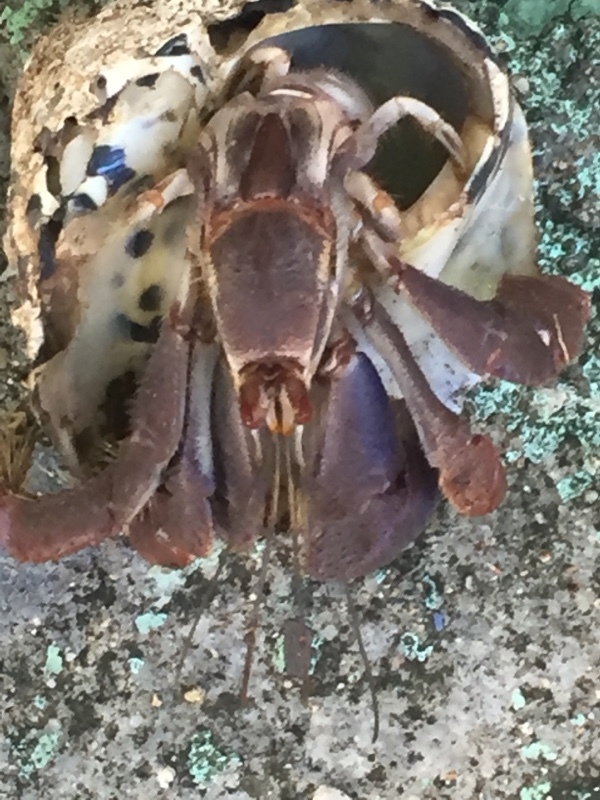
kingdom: Animalia
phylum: Arthropoda
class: Malacostraca
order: Decapoda
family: Coenobitidae
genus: Coenobita
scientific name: Coenobita clypeatus
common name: Caribbean hermit crab
